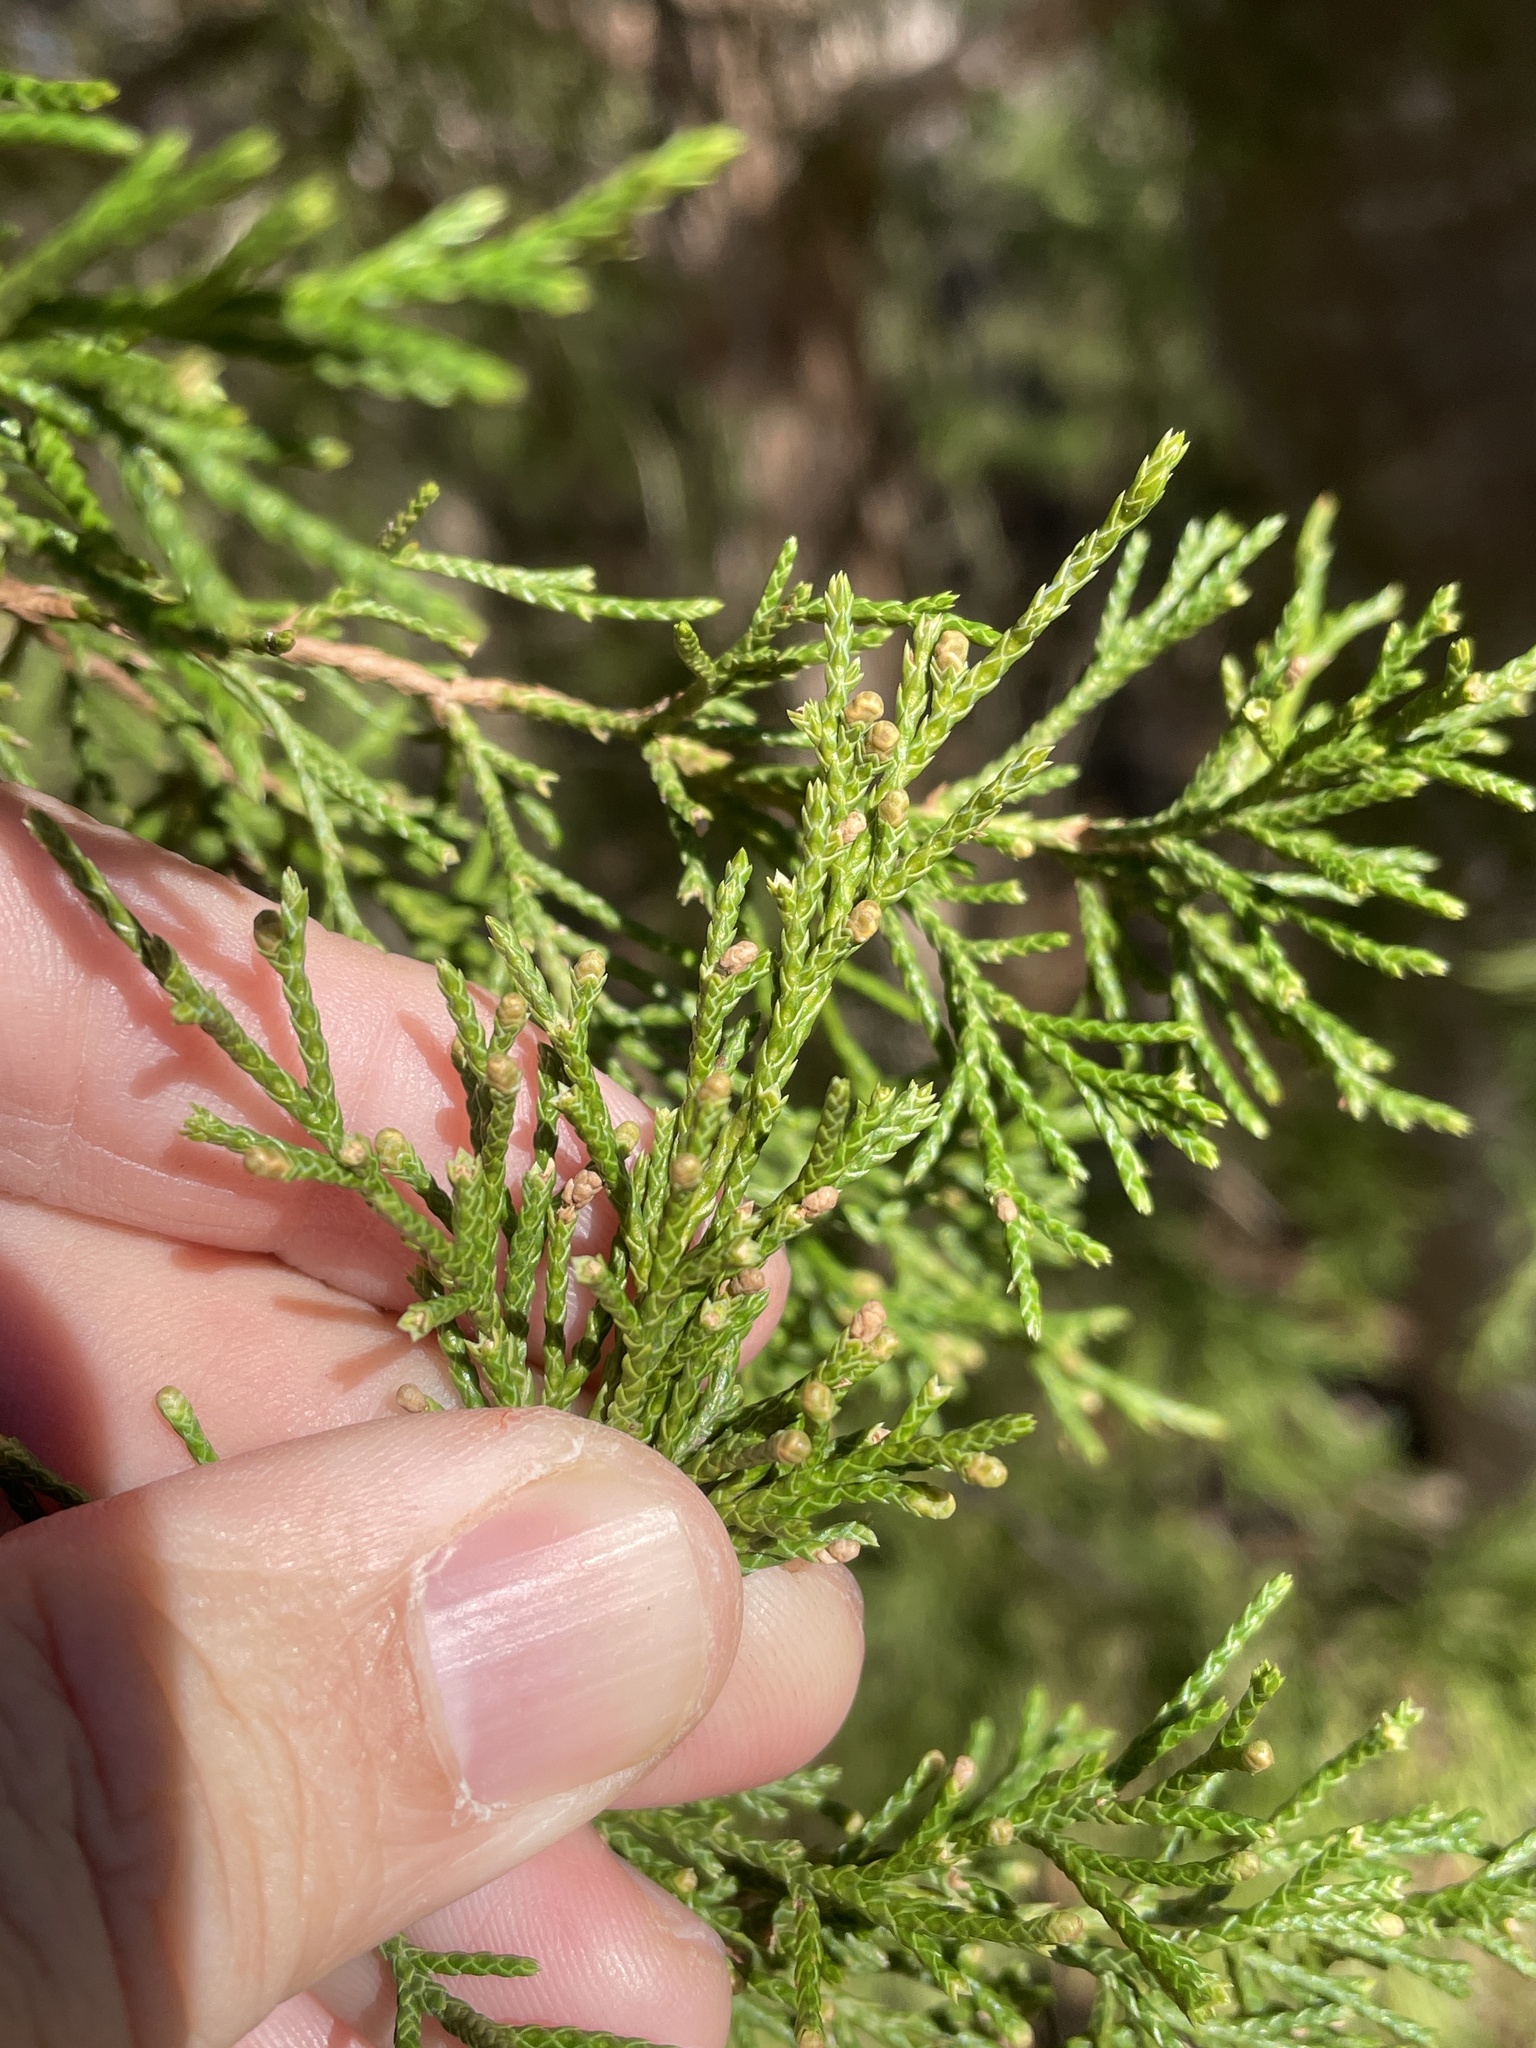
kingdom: Plantae
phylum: Tracheophyta
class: Pinopsida
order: Pinales
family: Cupressaceae
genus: Juniperus
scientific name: Juniperus virginiana
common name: Red juniper
